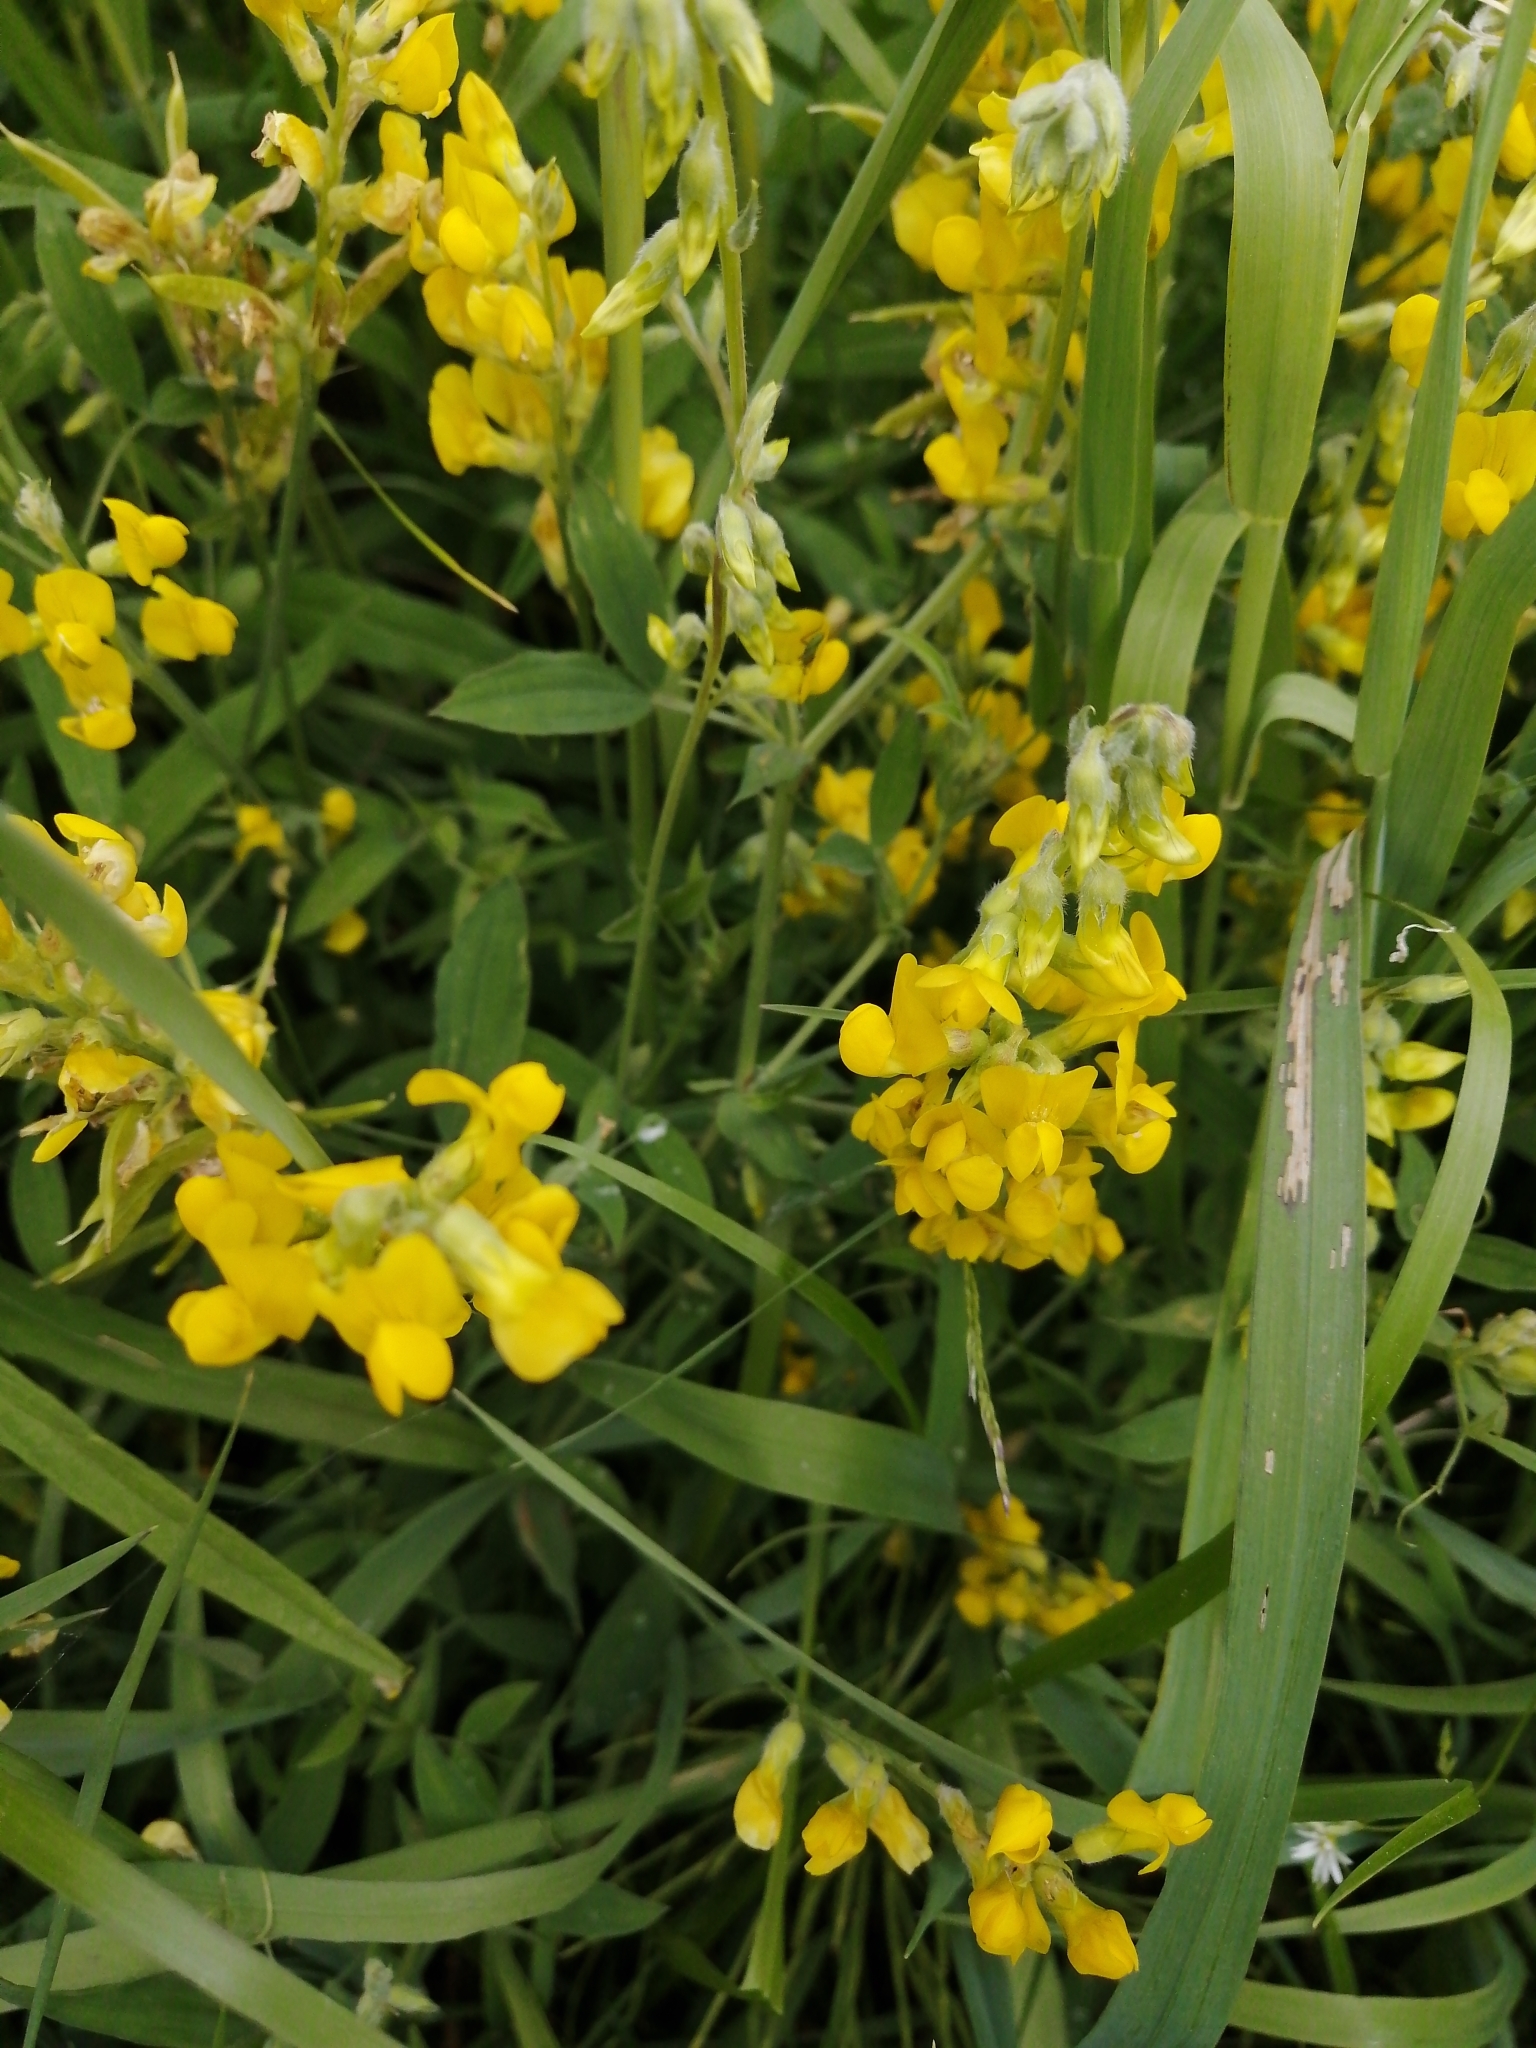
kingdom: Plantae
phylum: Tracheophyta
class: Magnoliopsida
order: Fabales
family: Fabaceae
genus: Lathyrus
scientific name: Lathyrus pratensis
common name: Meadow vetchling
